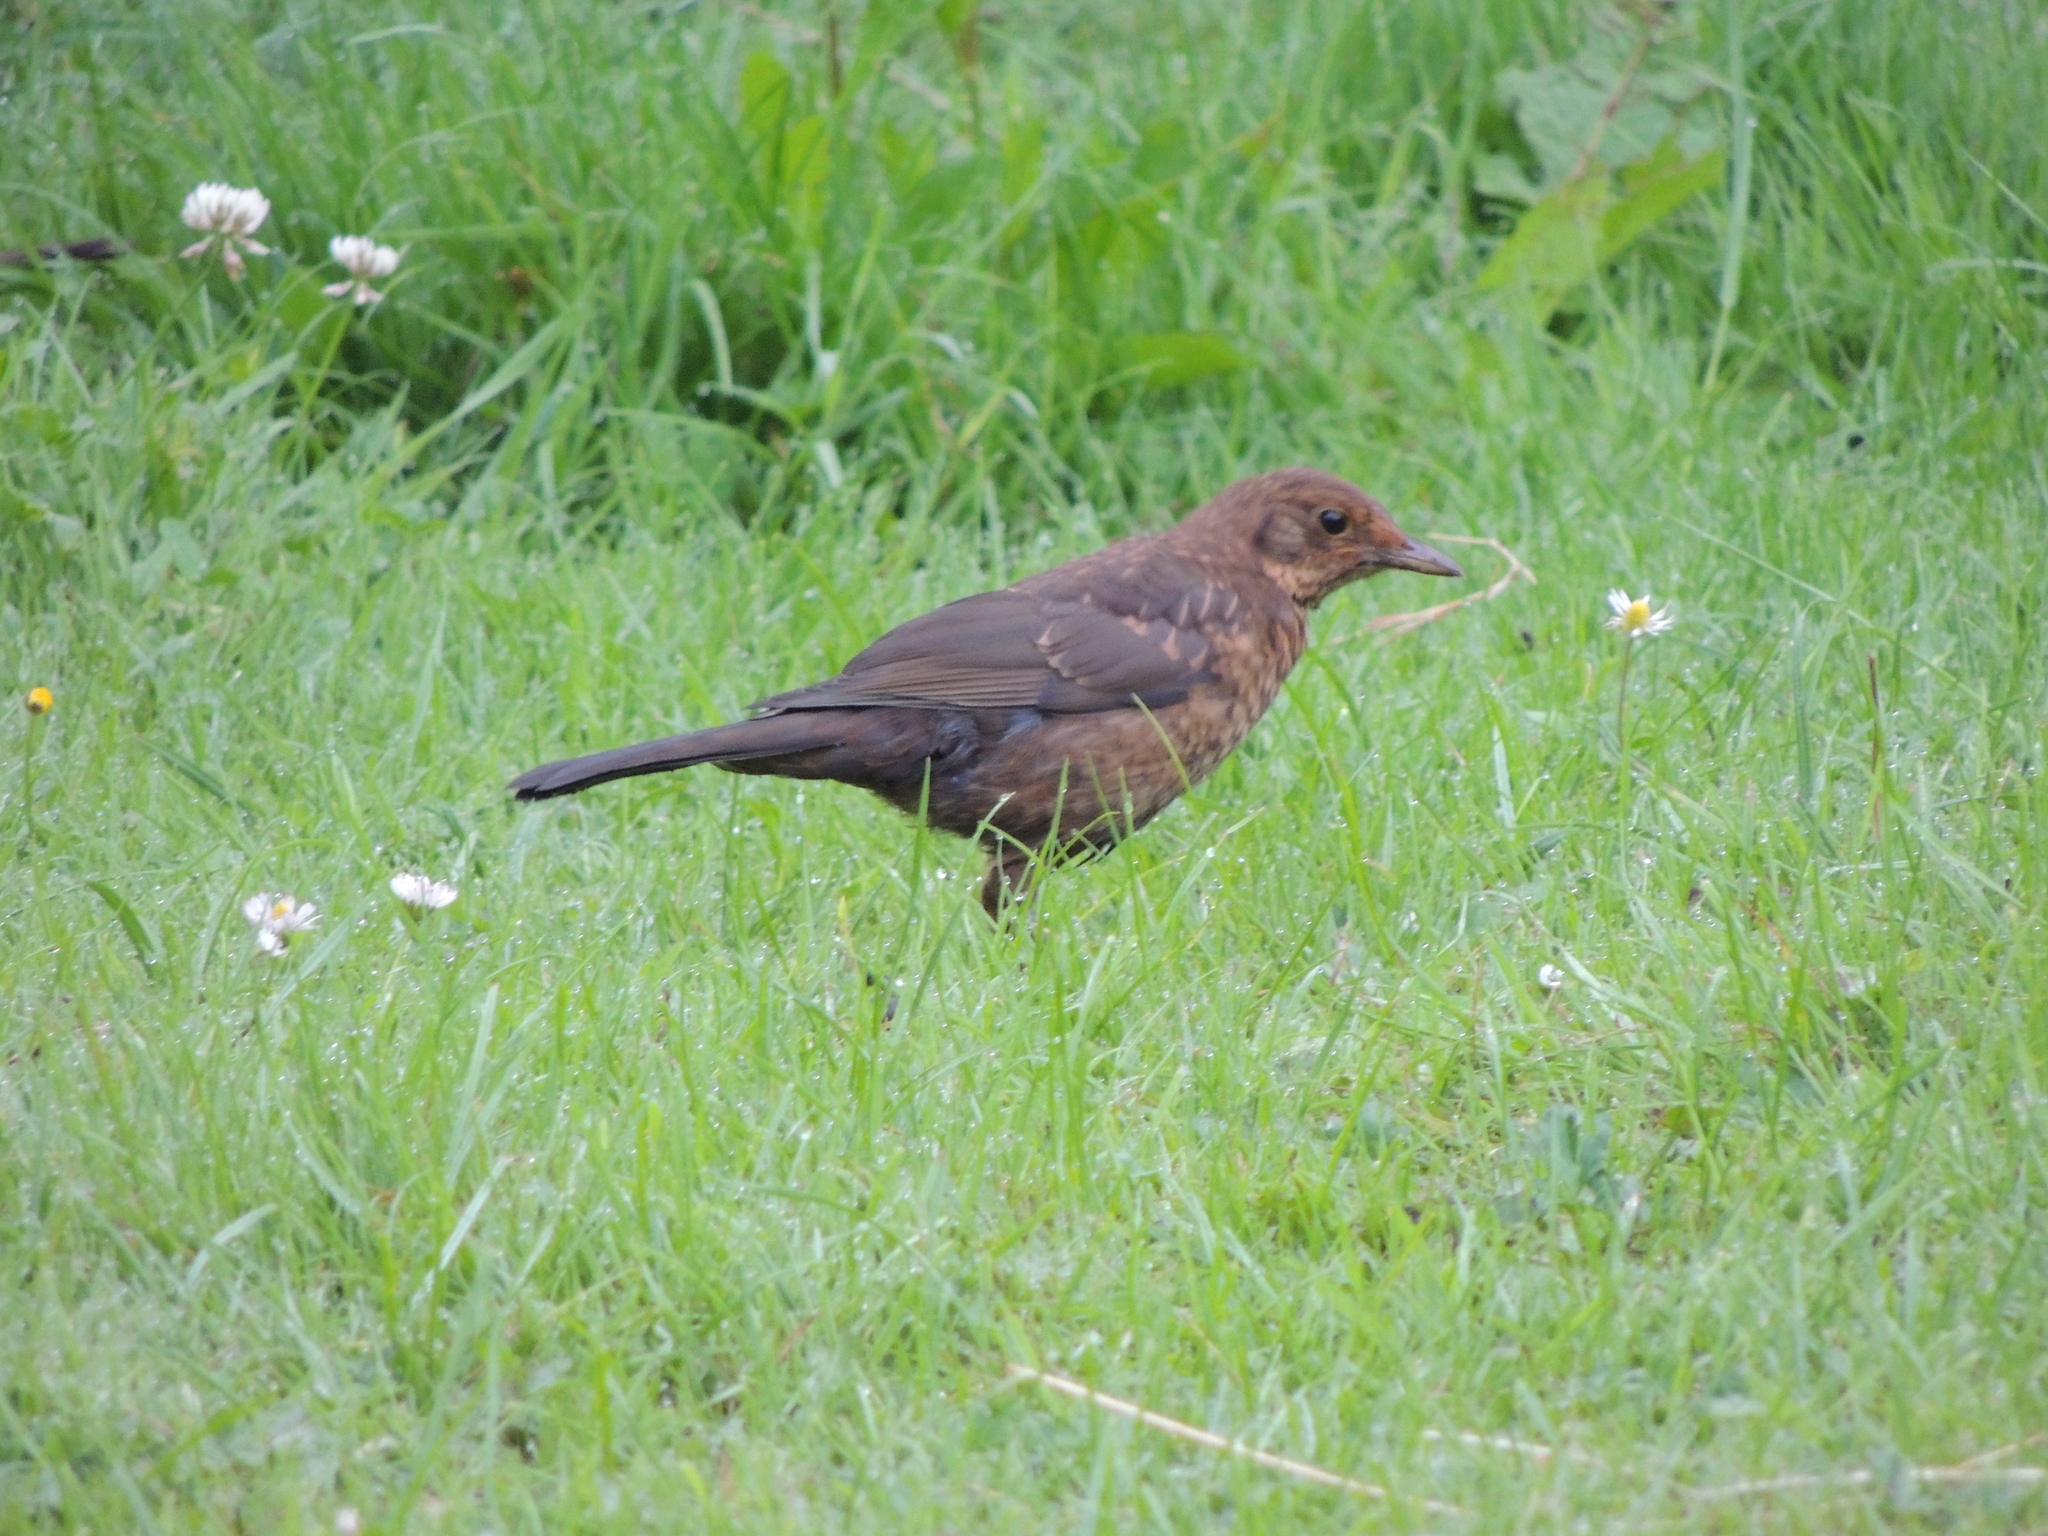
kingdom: Animalia
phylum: Chordata
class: Aves
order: Passeriformes
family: Turdidae
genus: Turdus
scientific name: Turdus merula
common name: Common blackbird
